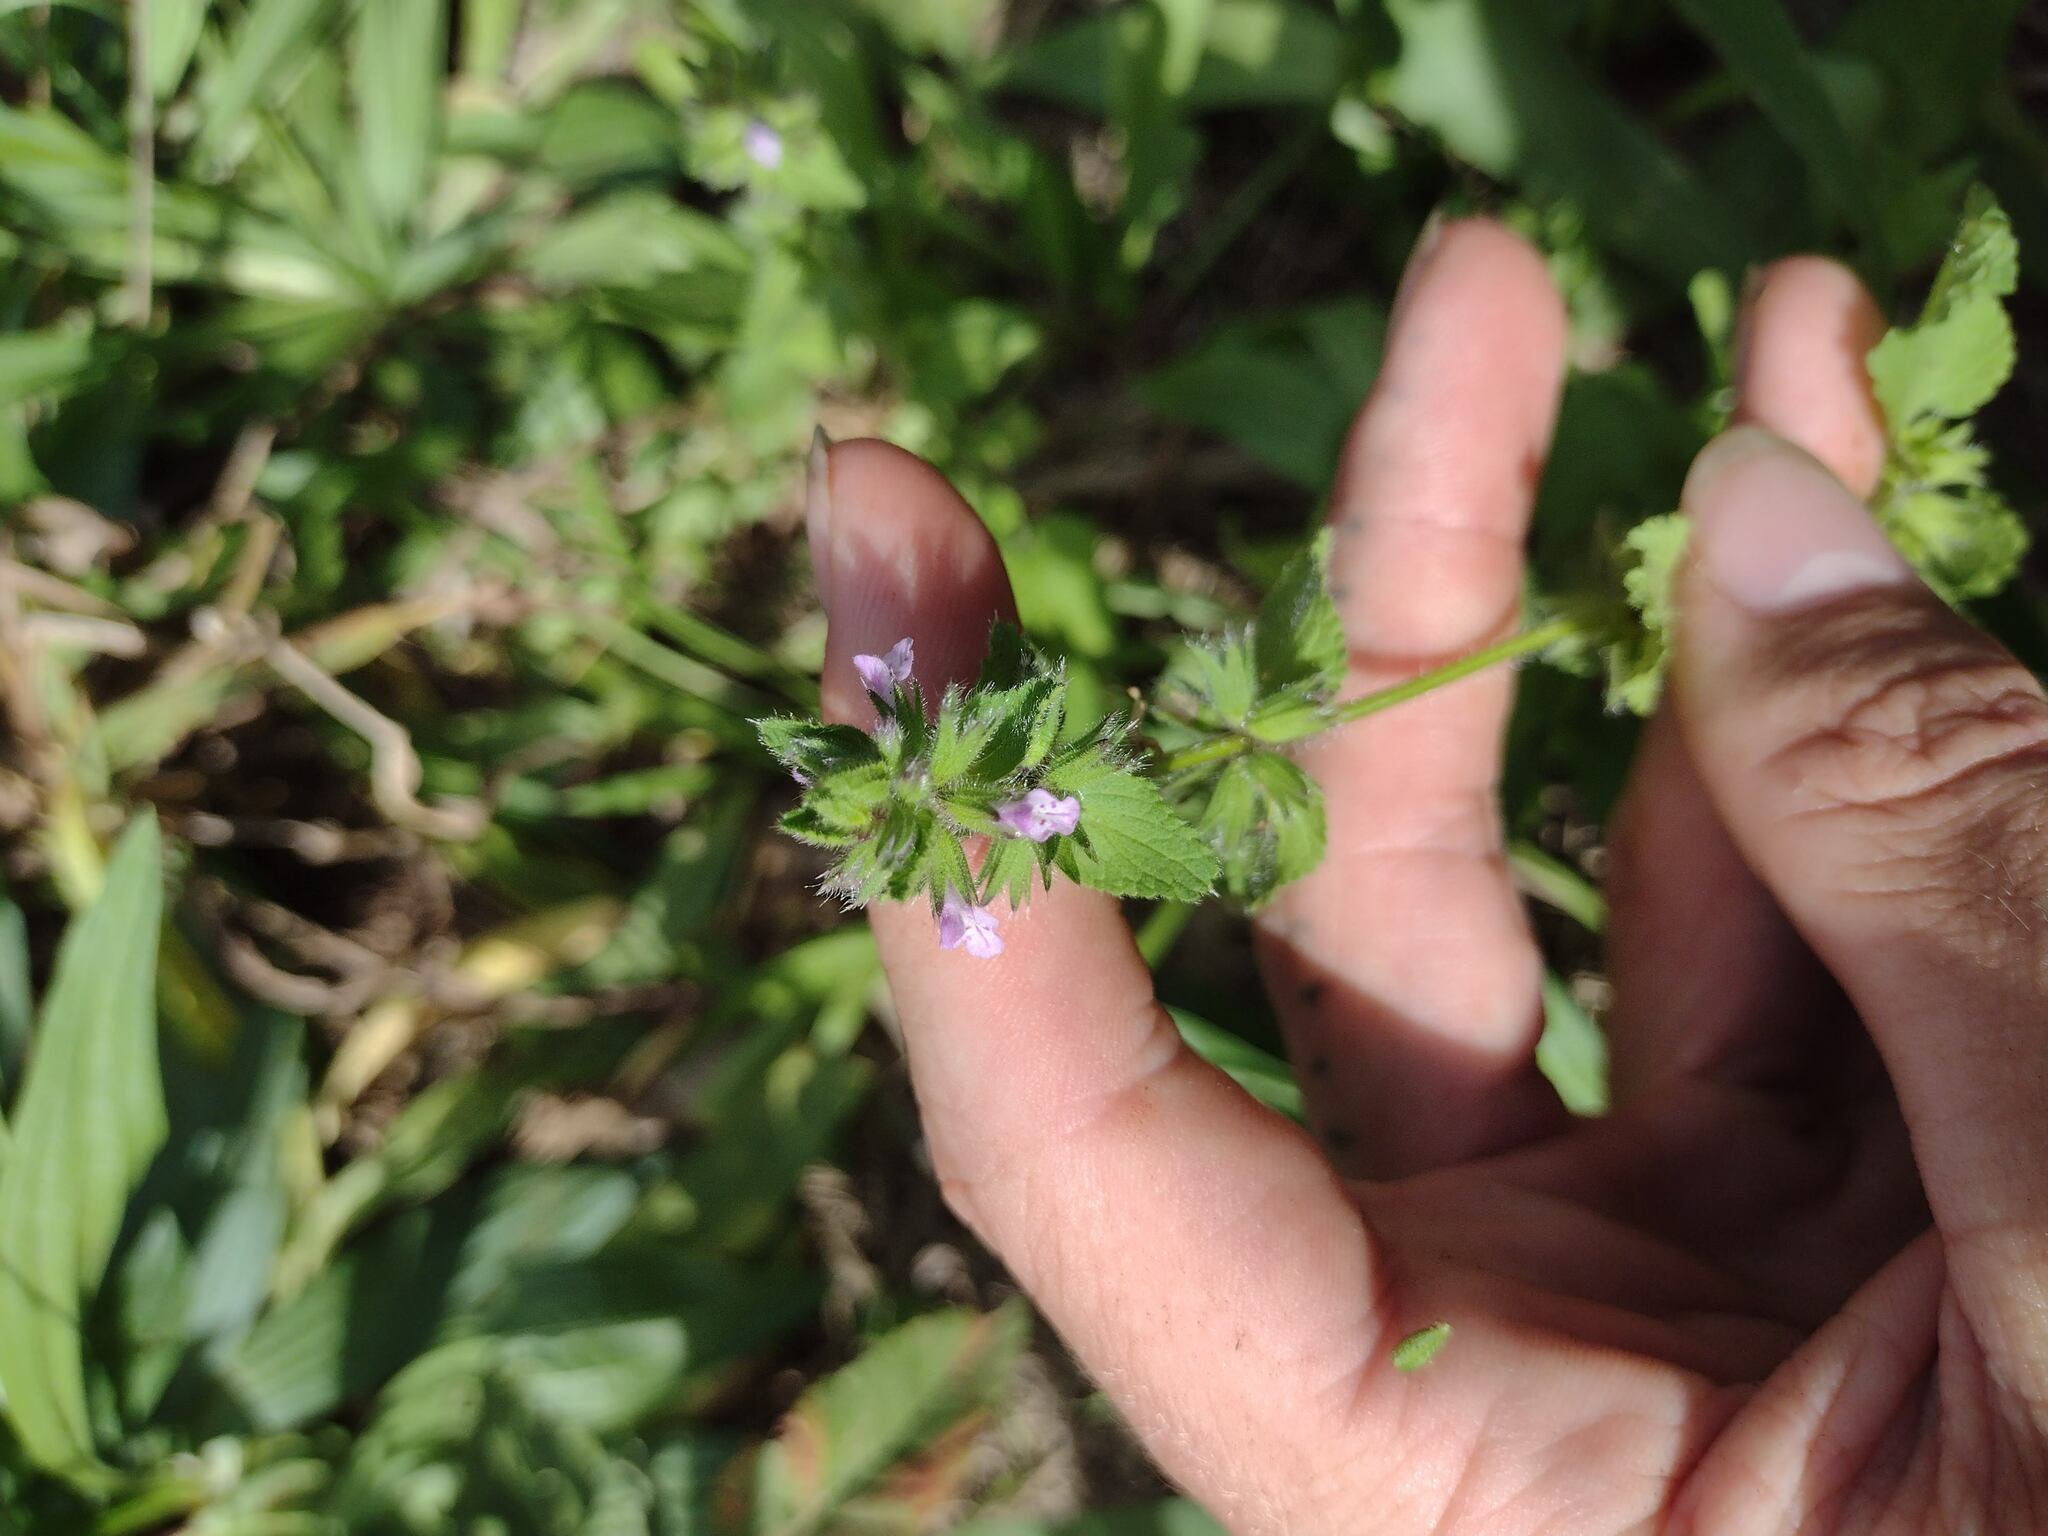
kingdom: Plantae
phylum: Tracheophyta
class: Magnoliopsida
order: Lamiales
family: Lamiaceae
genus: Stachys
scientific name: Stachys arvensis
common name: Field woundwort
